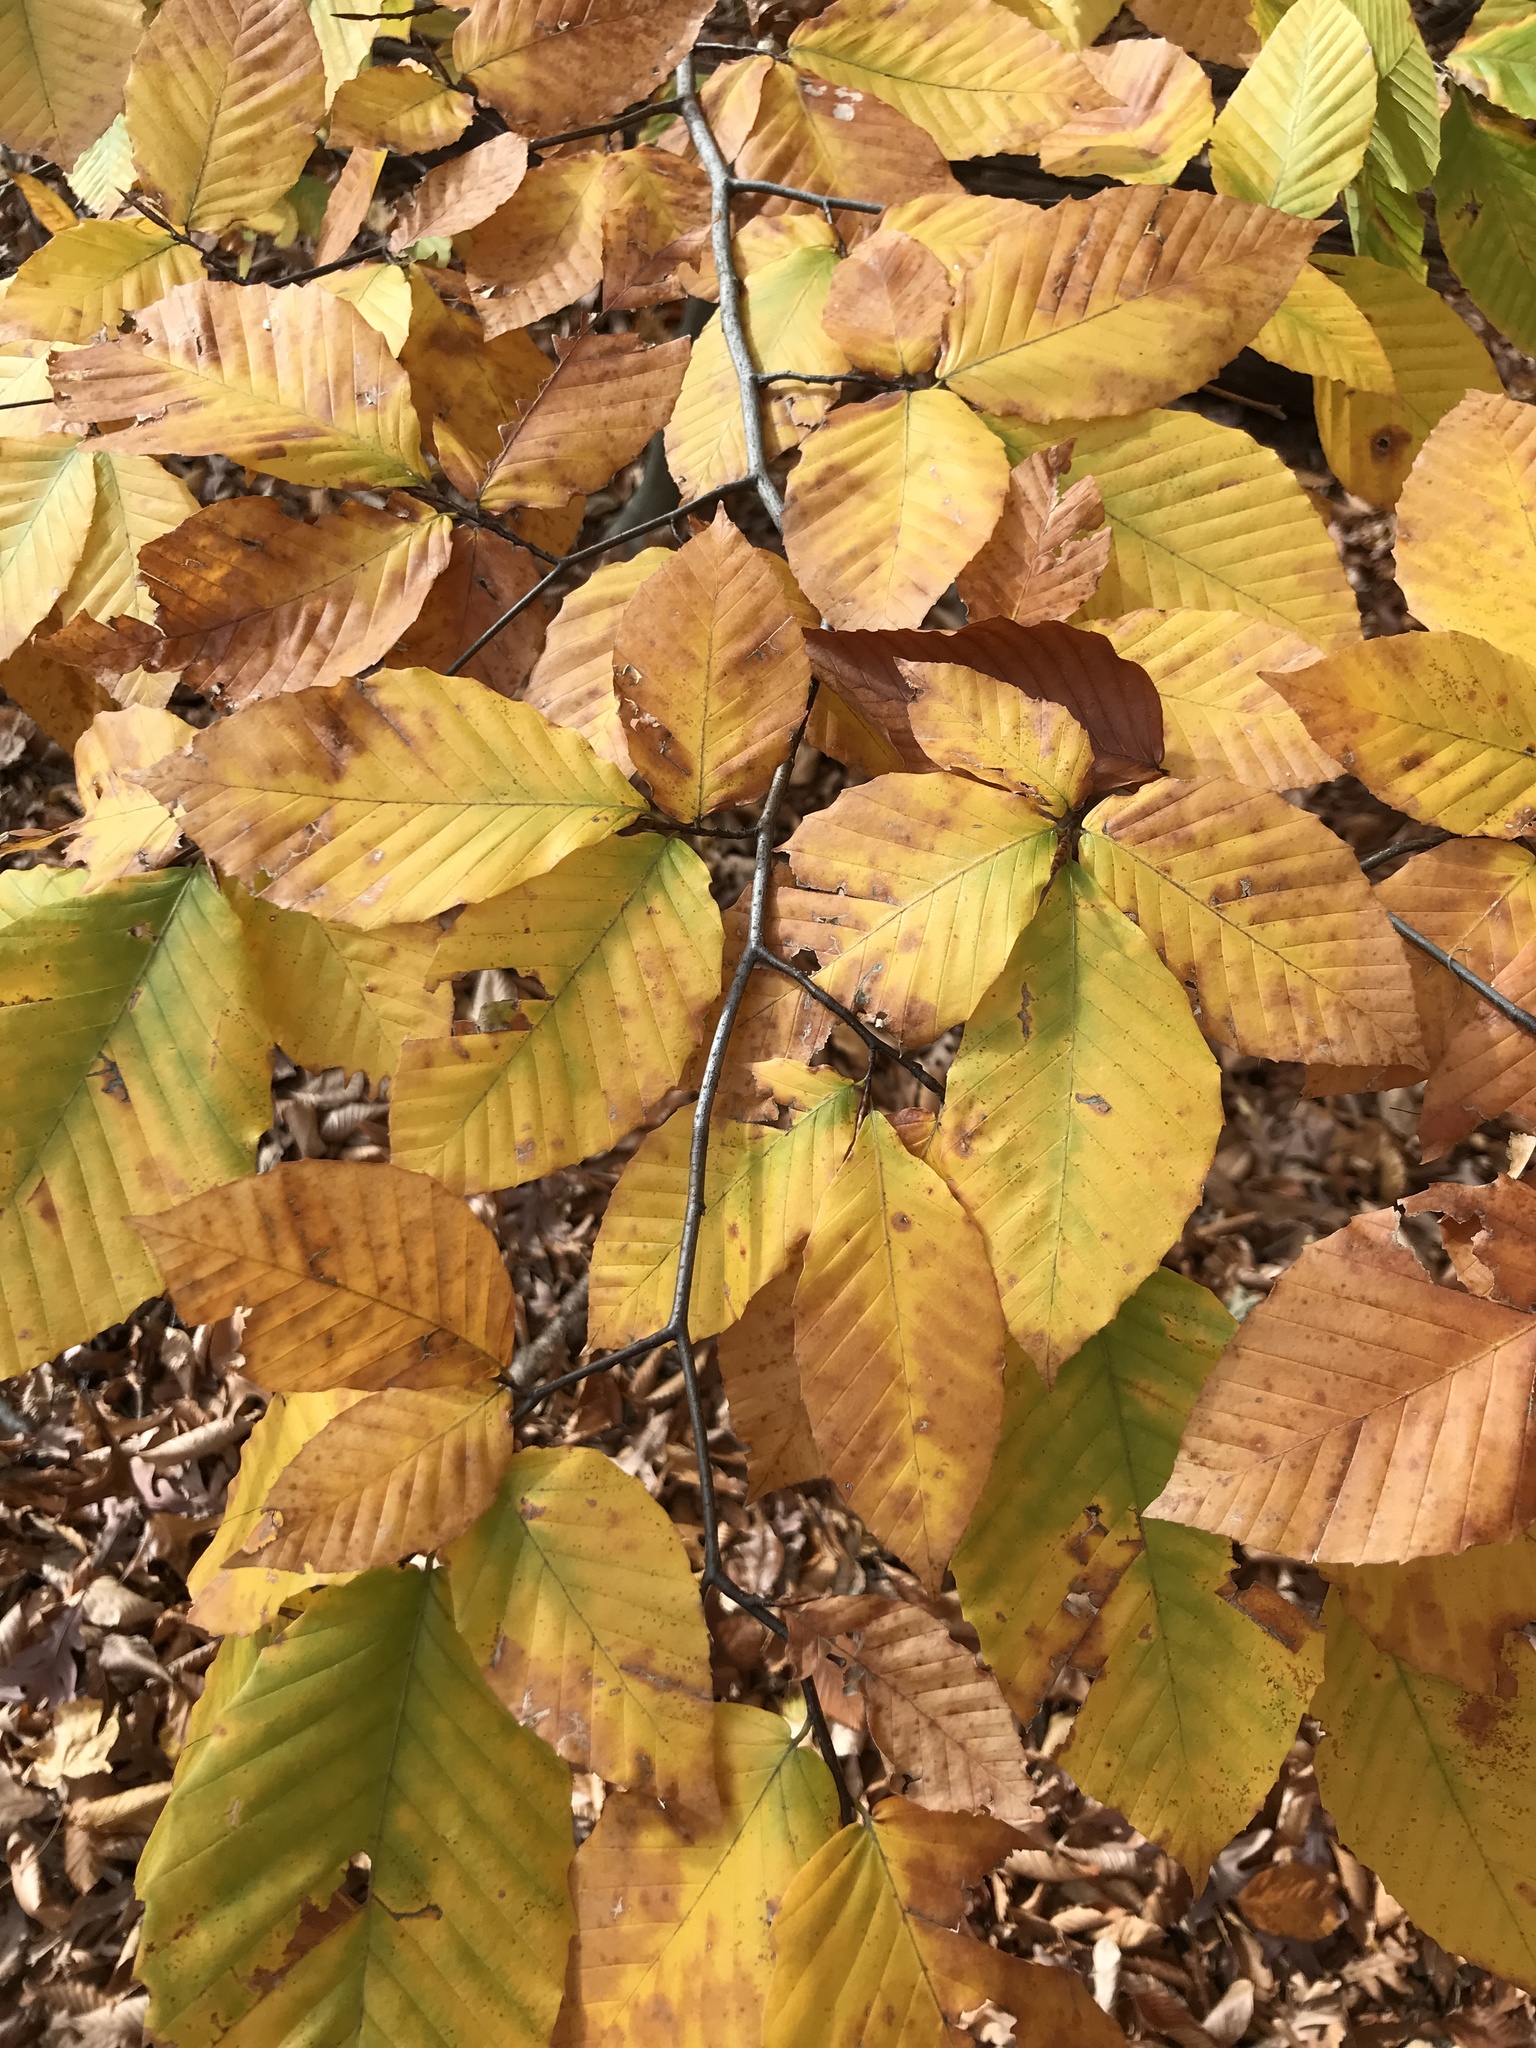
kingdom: Plantae
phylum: Tracheophyta
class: Magnoliopsida
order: Fagales
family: Fagaceae
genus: Fagus
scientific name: Fagus grandifolia
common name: American beech
